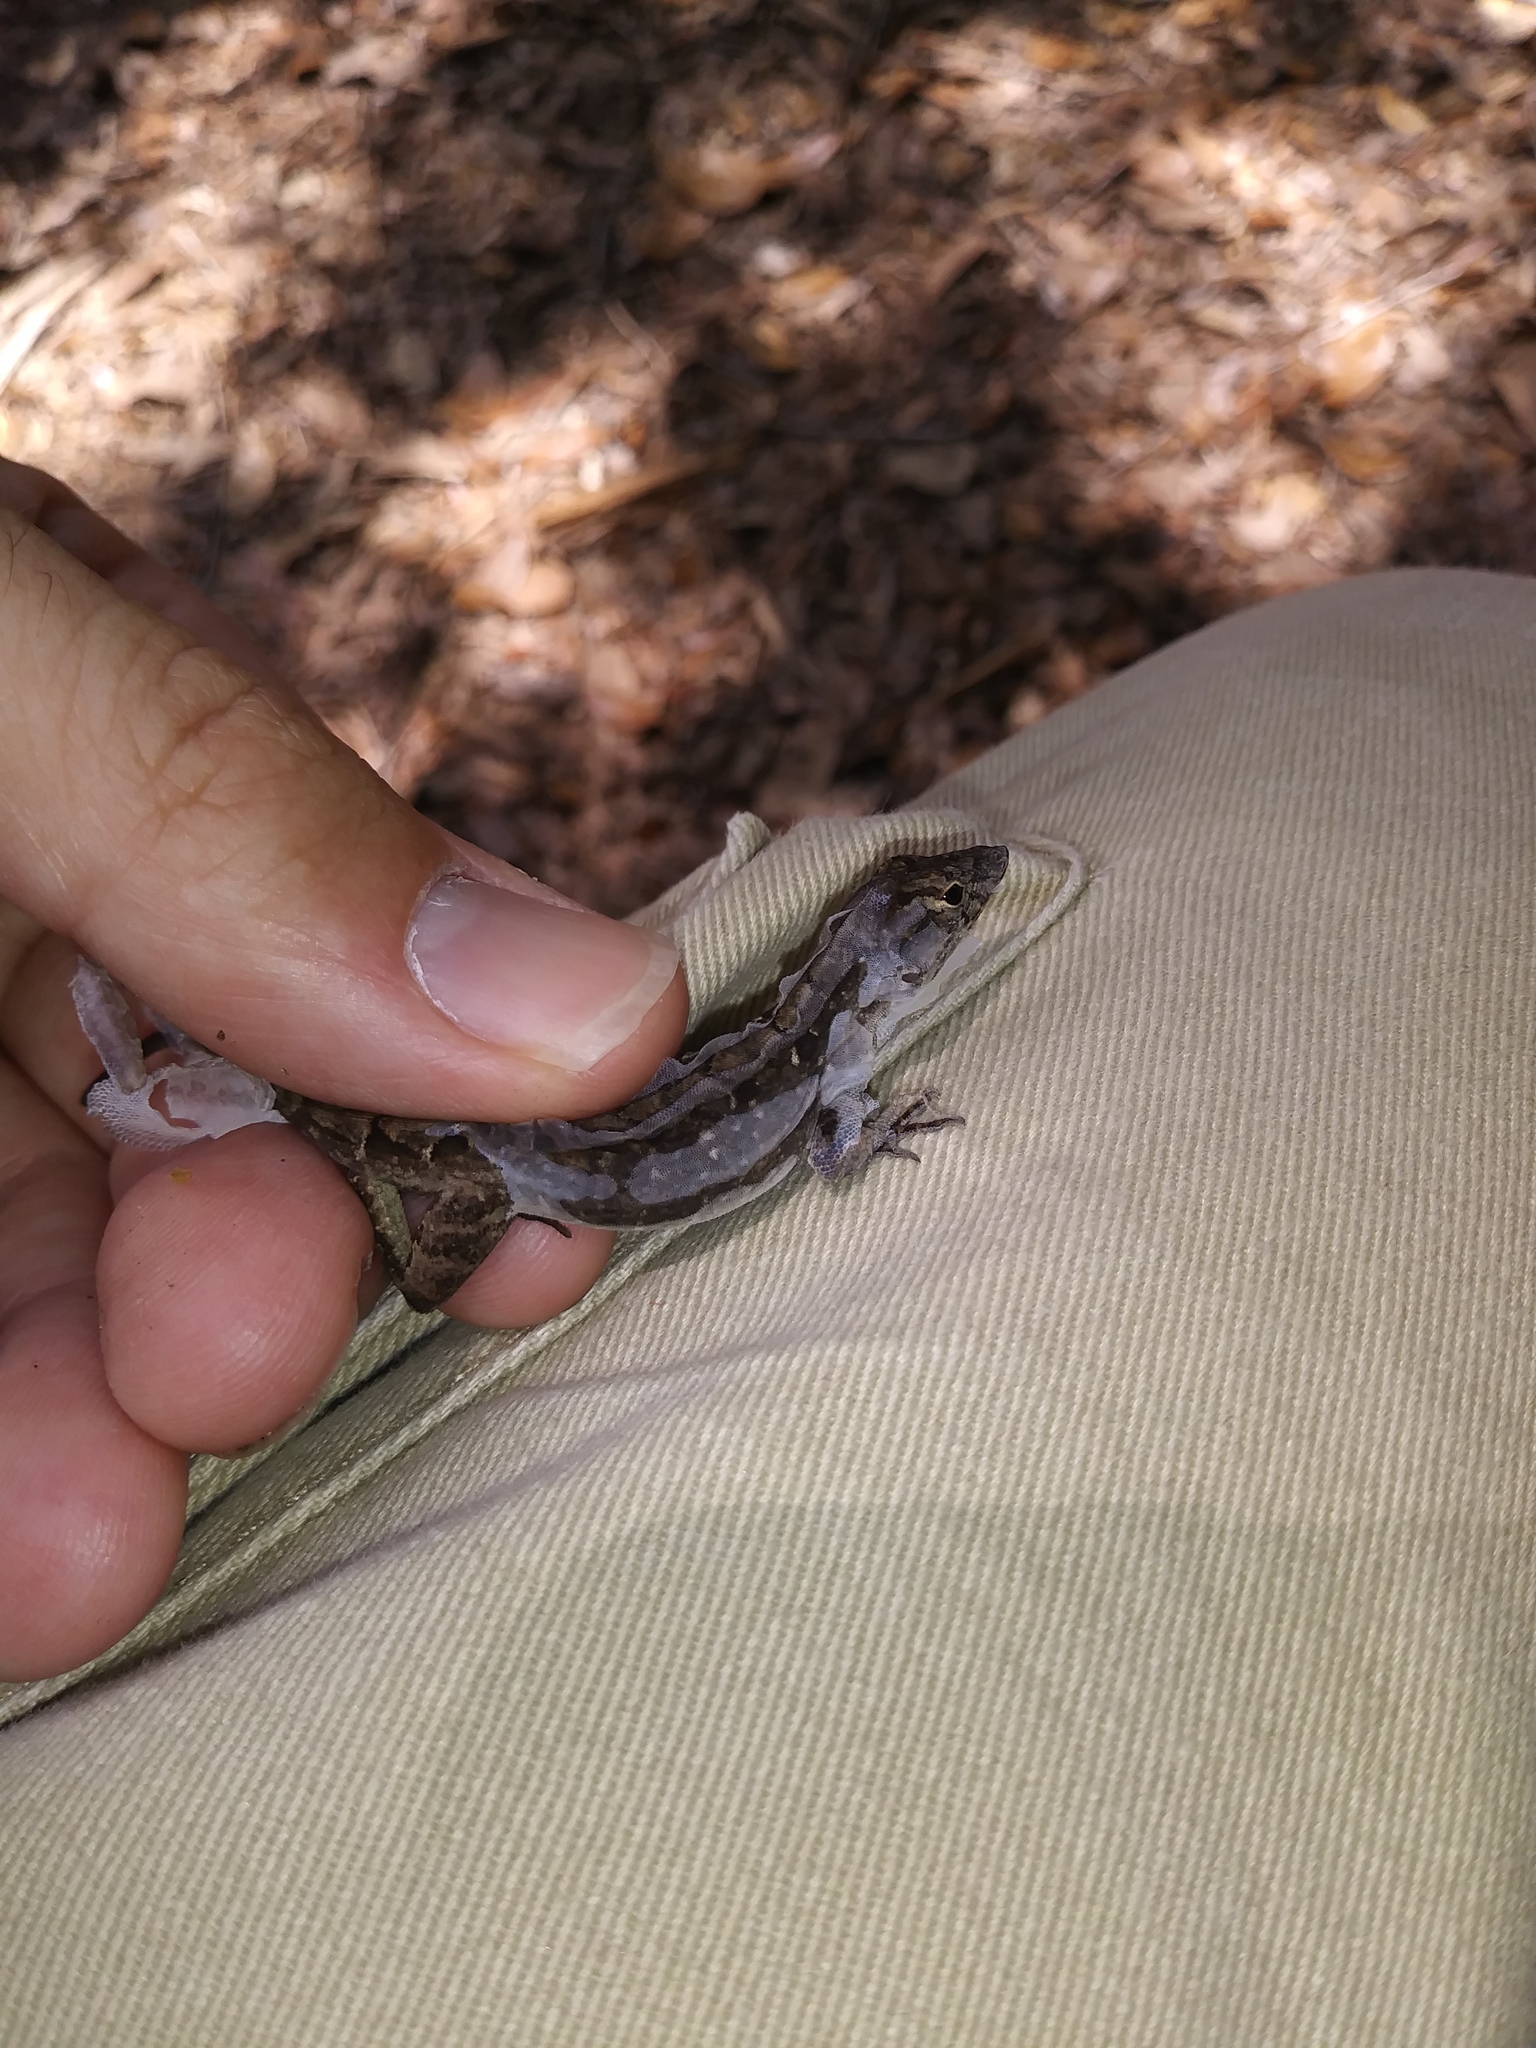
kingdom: Animalia
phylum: Chordata
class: Squamata
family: Dactyloidae
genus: Anolis
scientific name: Anolis sagrei
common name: Brown anole
